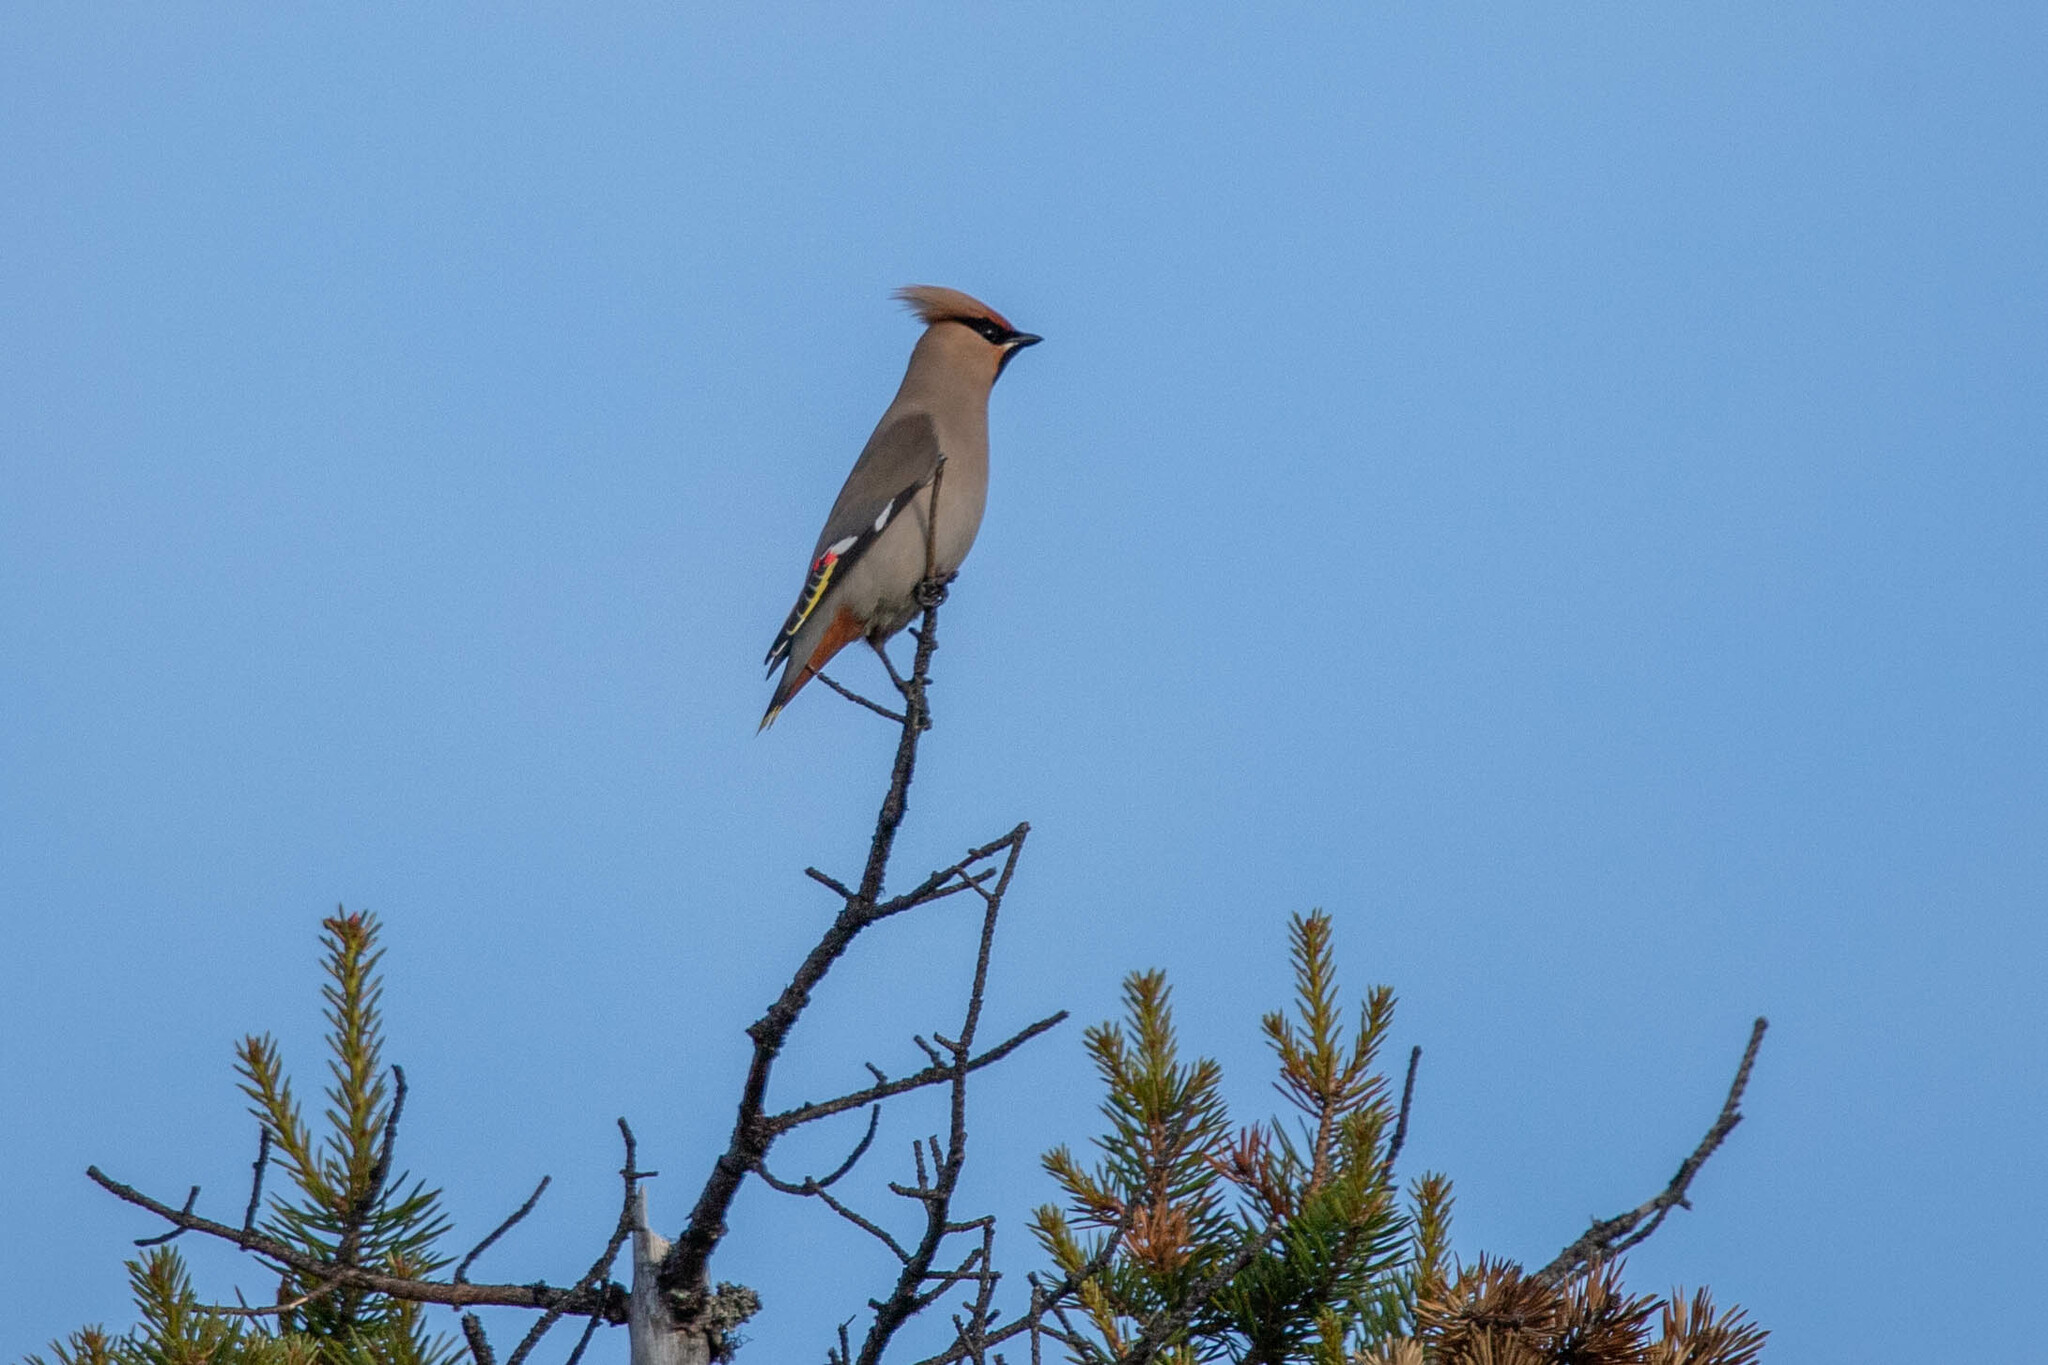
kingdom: Animalia
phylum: Chordata
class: Aves
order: Passeriformes
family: Bombycillidae
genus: Bombycilla
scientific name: Bombycilla garrulus
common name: Bohemian waxwing
